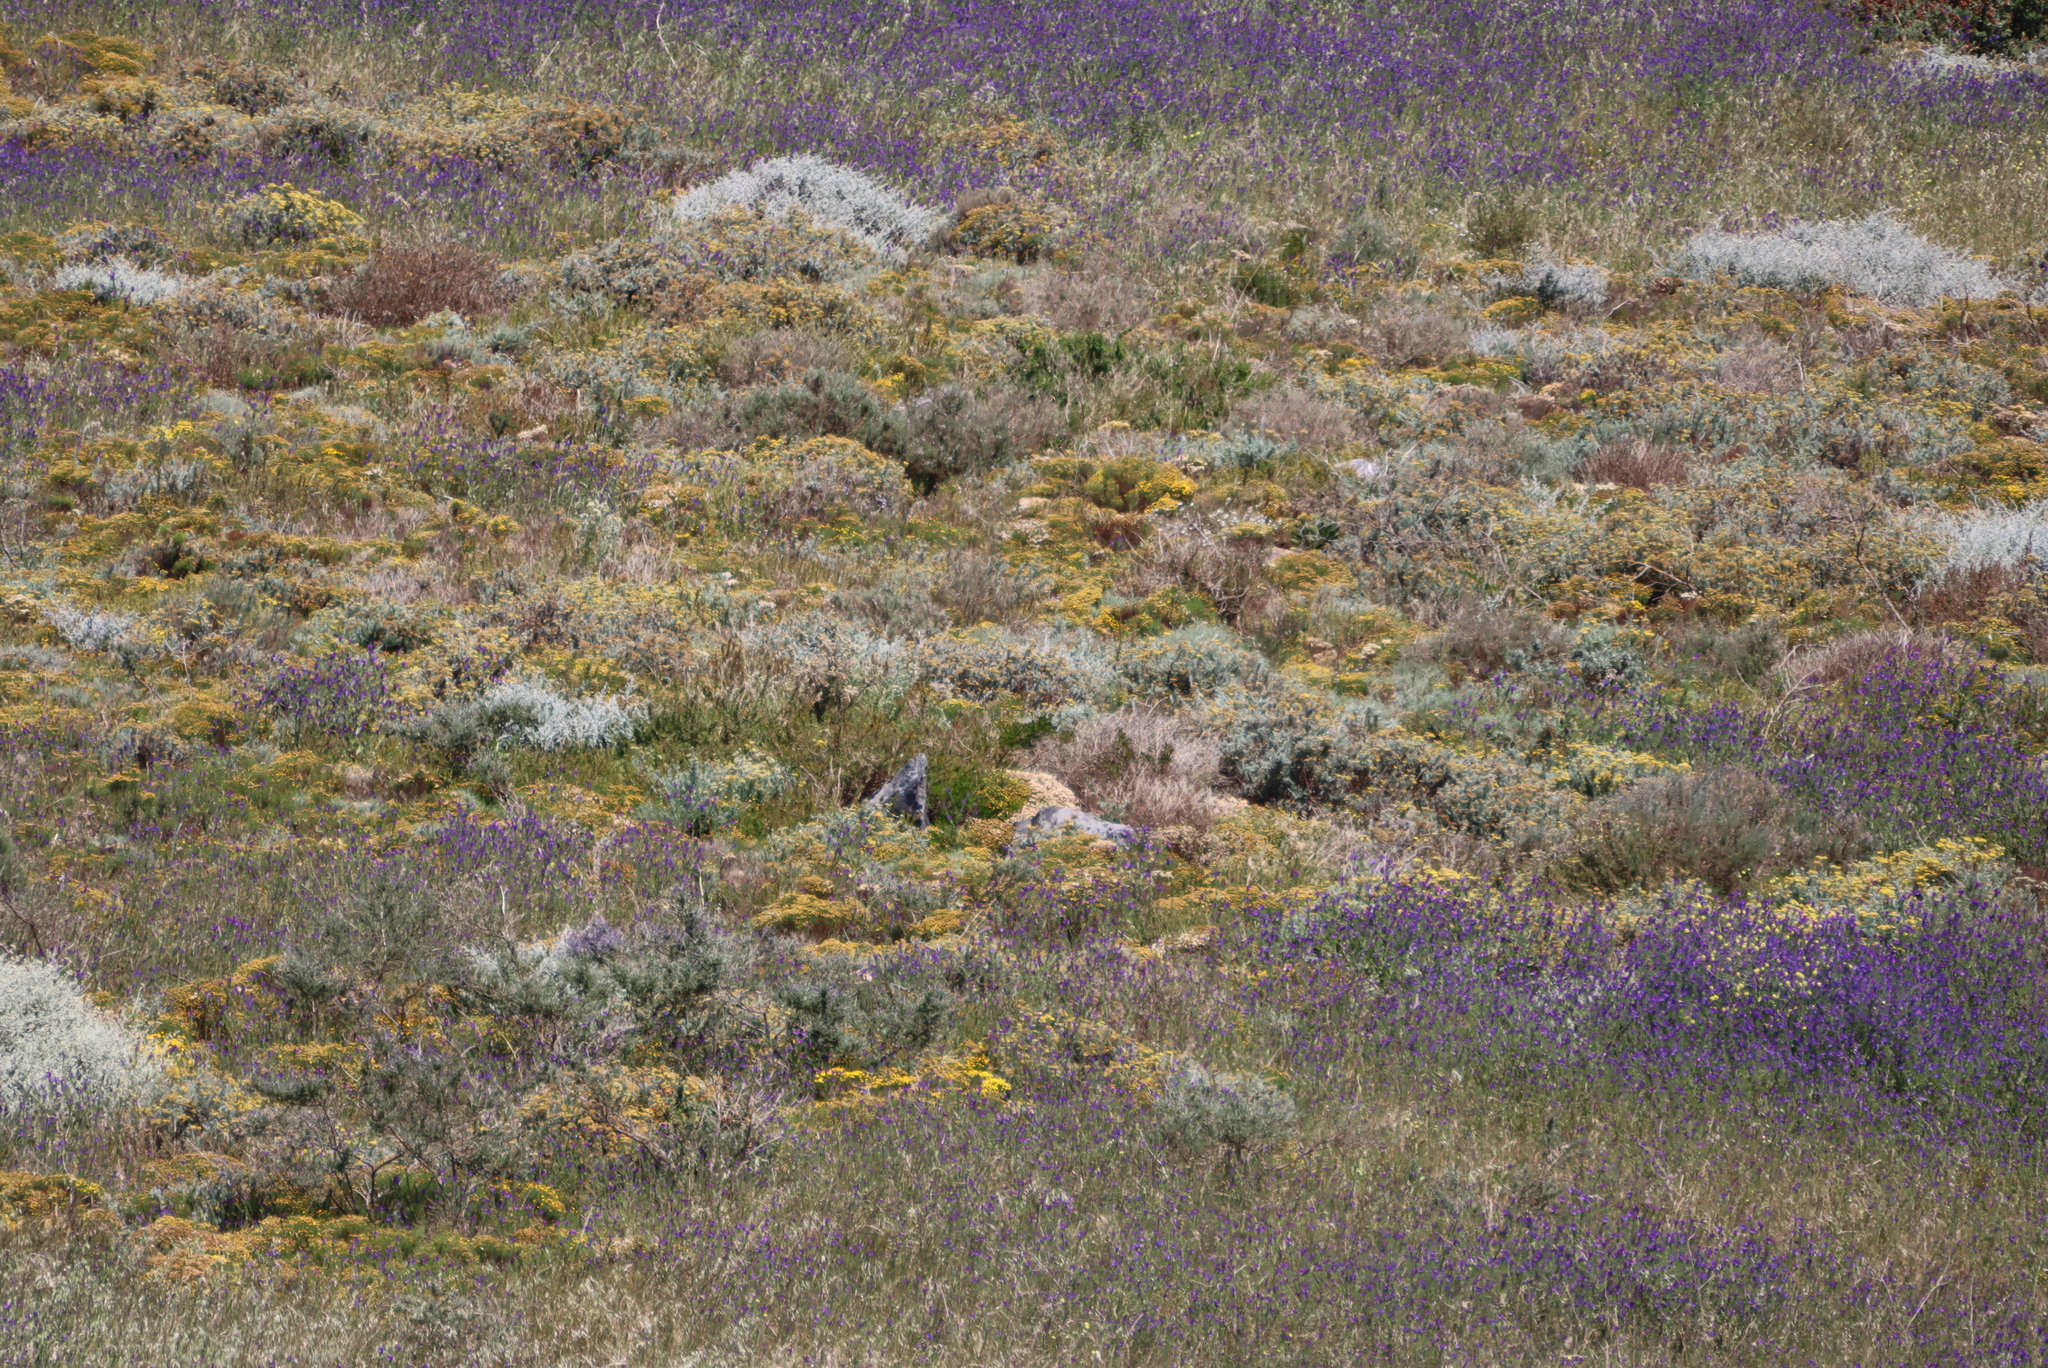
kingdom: Plantae
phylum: Tracheophyta
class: Magnoliopsida
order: Boraginales
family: Boraginaceae
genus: Echium
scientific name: Echium plantagineum
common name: Purple viper's-bugloss
